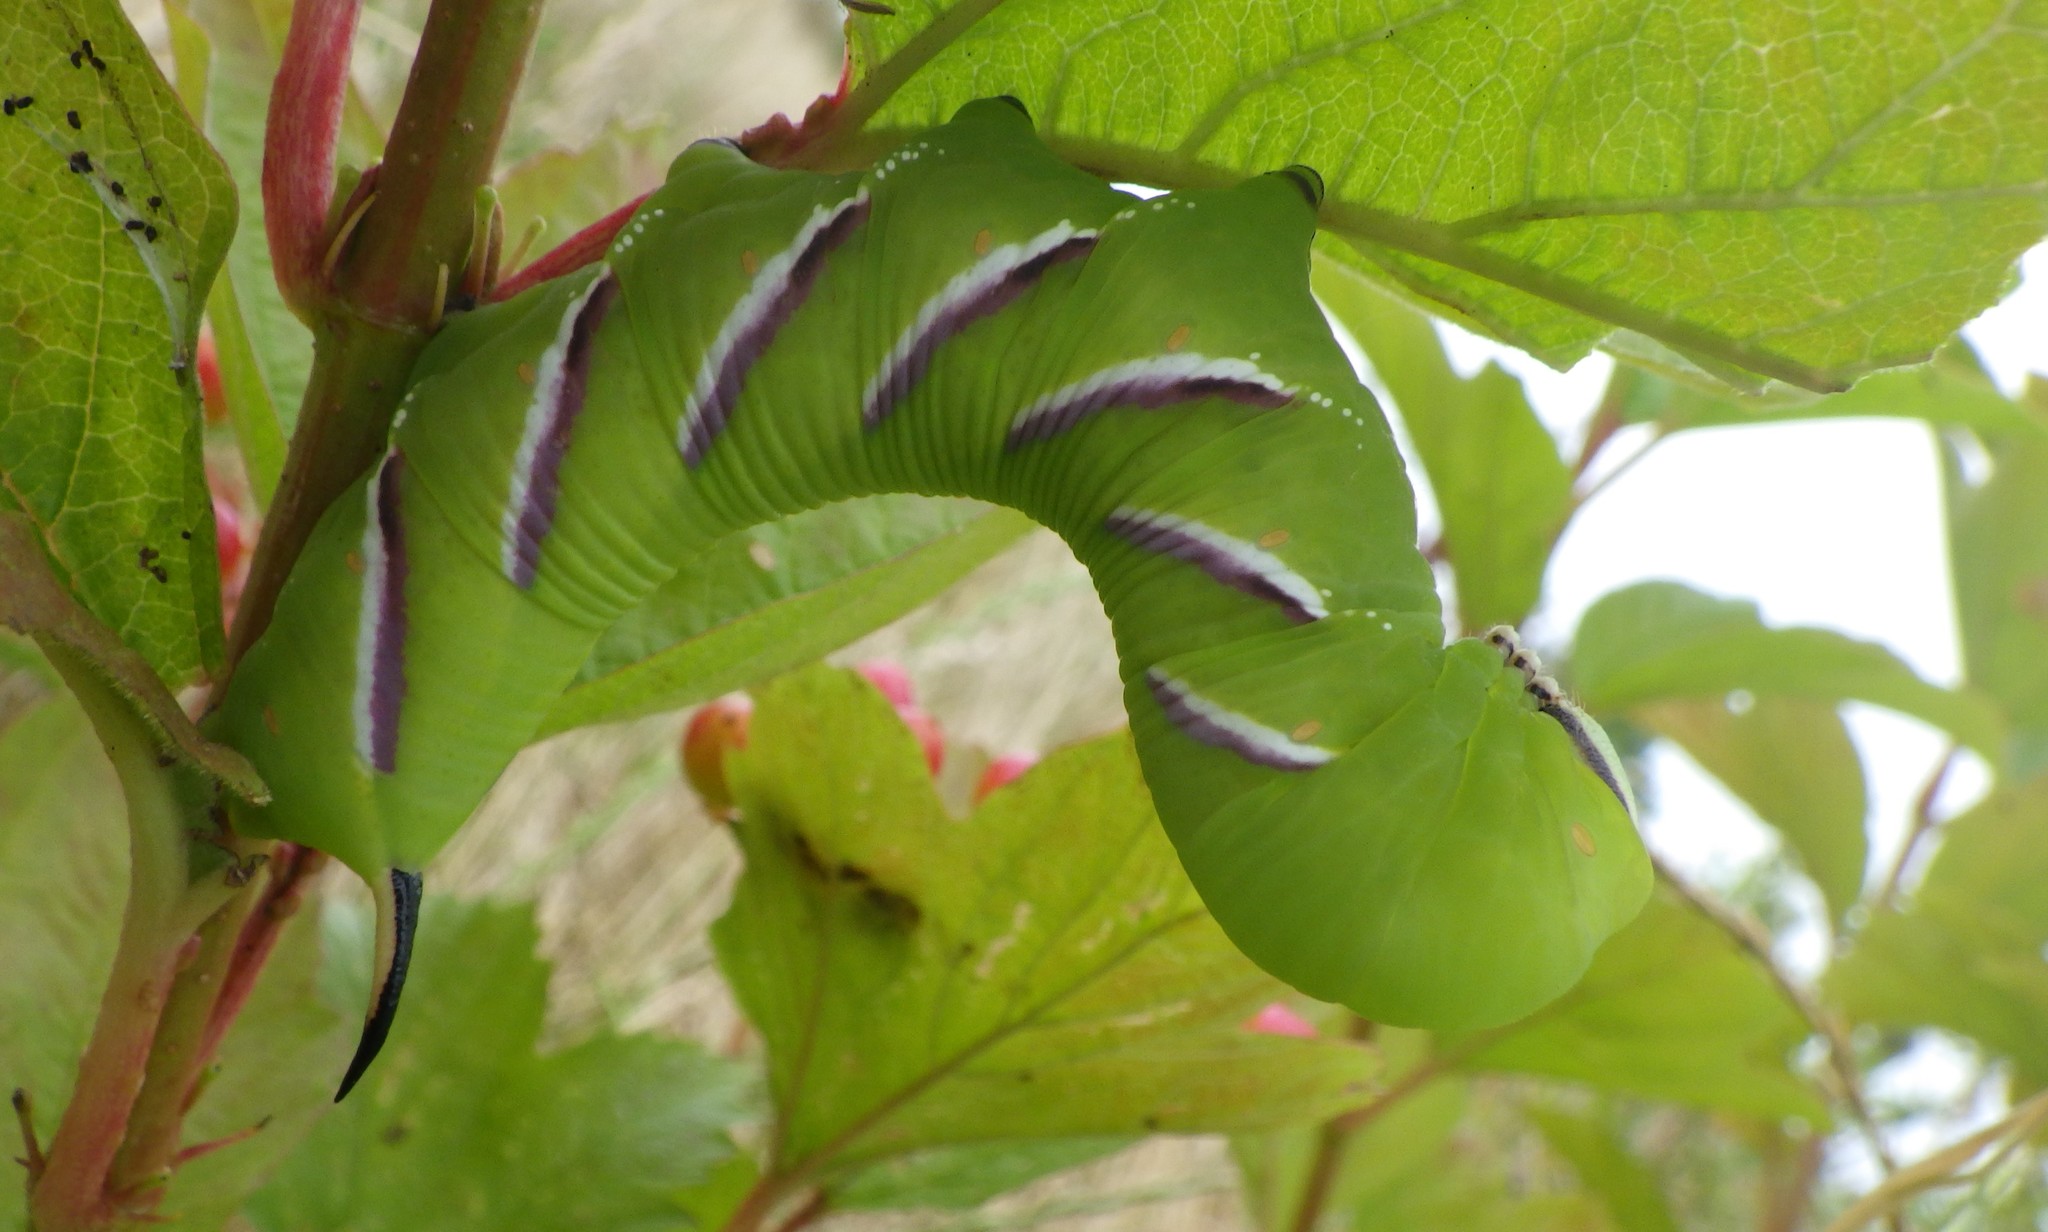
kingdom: Animalia
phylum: Arthropoda
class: Insecta
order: Lepidoptera
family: Sphingidae
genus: Sphinx
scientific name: Sphinx ligustri
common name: Privet hawk-moth
